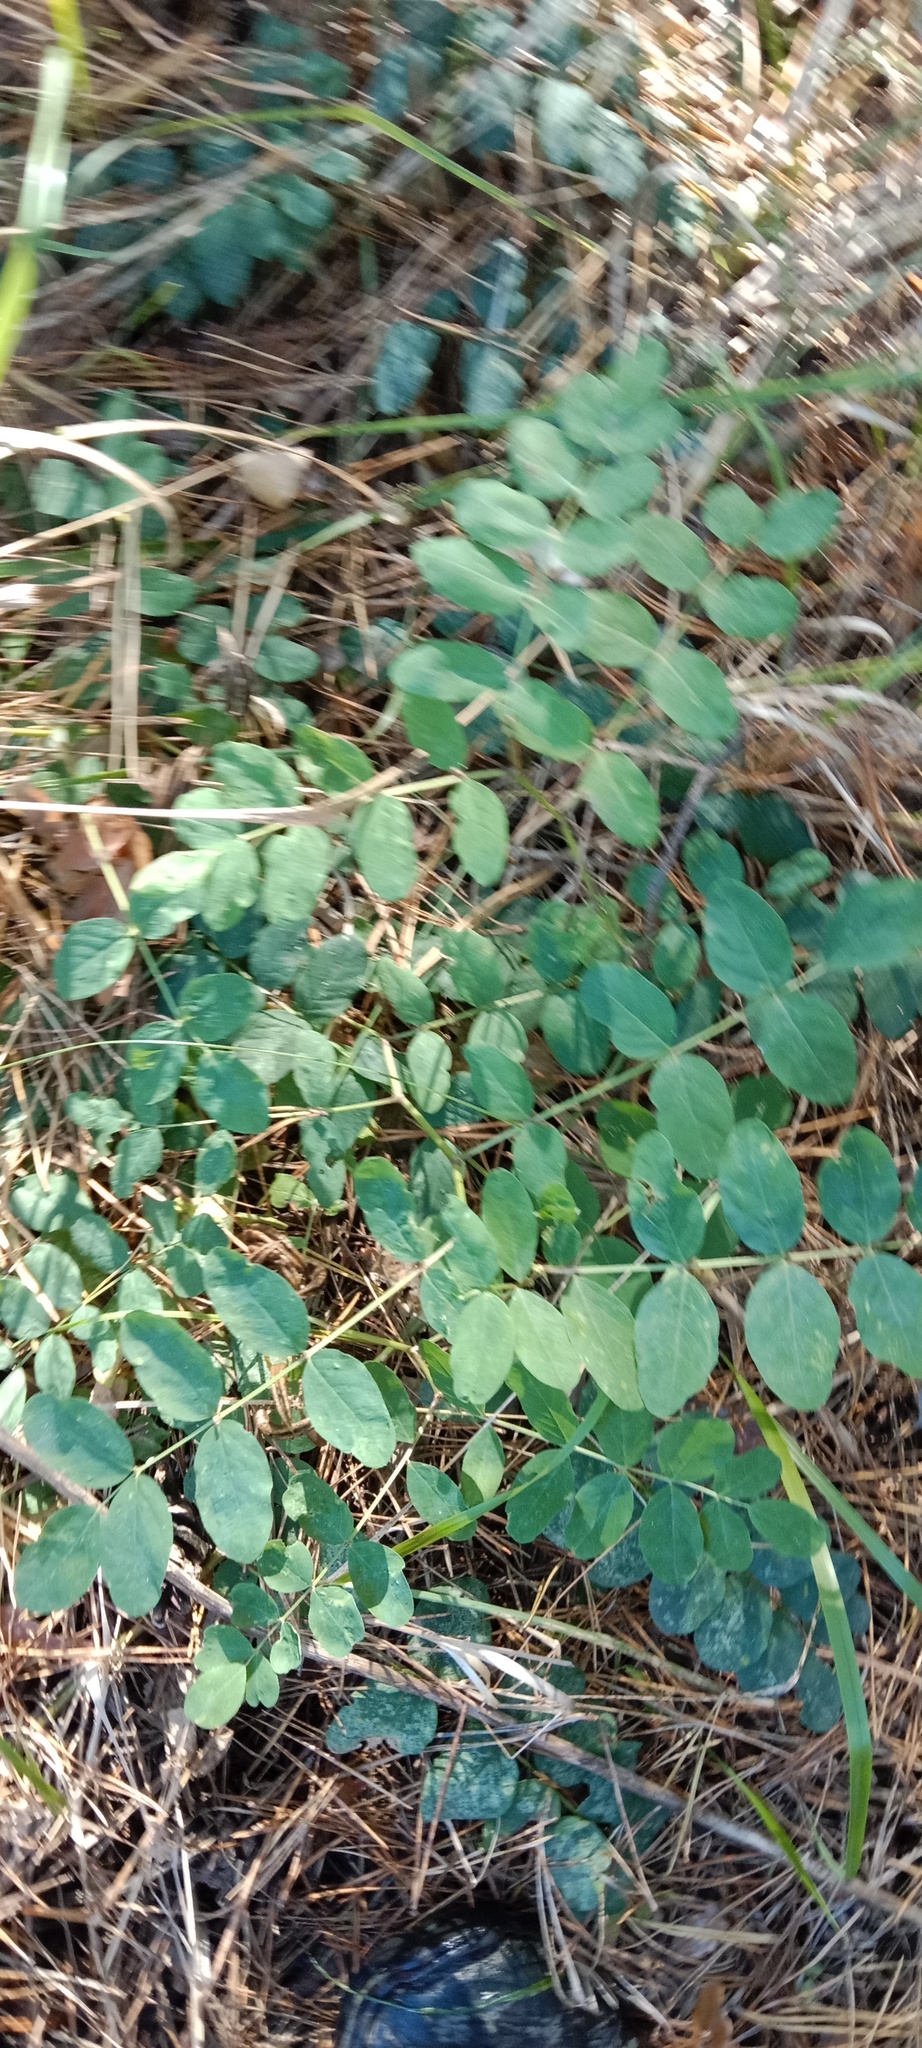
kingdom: Plantae
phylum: Tracheophyta
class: Magnoliopsida
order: Fabales
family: Fabaceae
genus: Astragalus
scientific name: Astragalus glycyphyllos
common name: Wild liquorice
